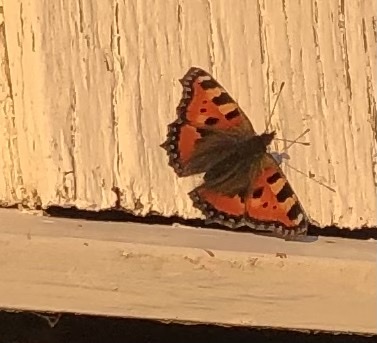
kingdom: Animalia
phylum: Arthropoda
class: Insecta
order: Lepidoptera
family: Nymphalidae
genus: Aglais
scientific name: Aglais urticae
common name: Small tortoiseshell
